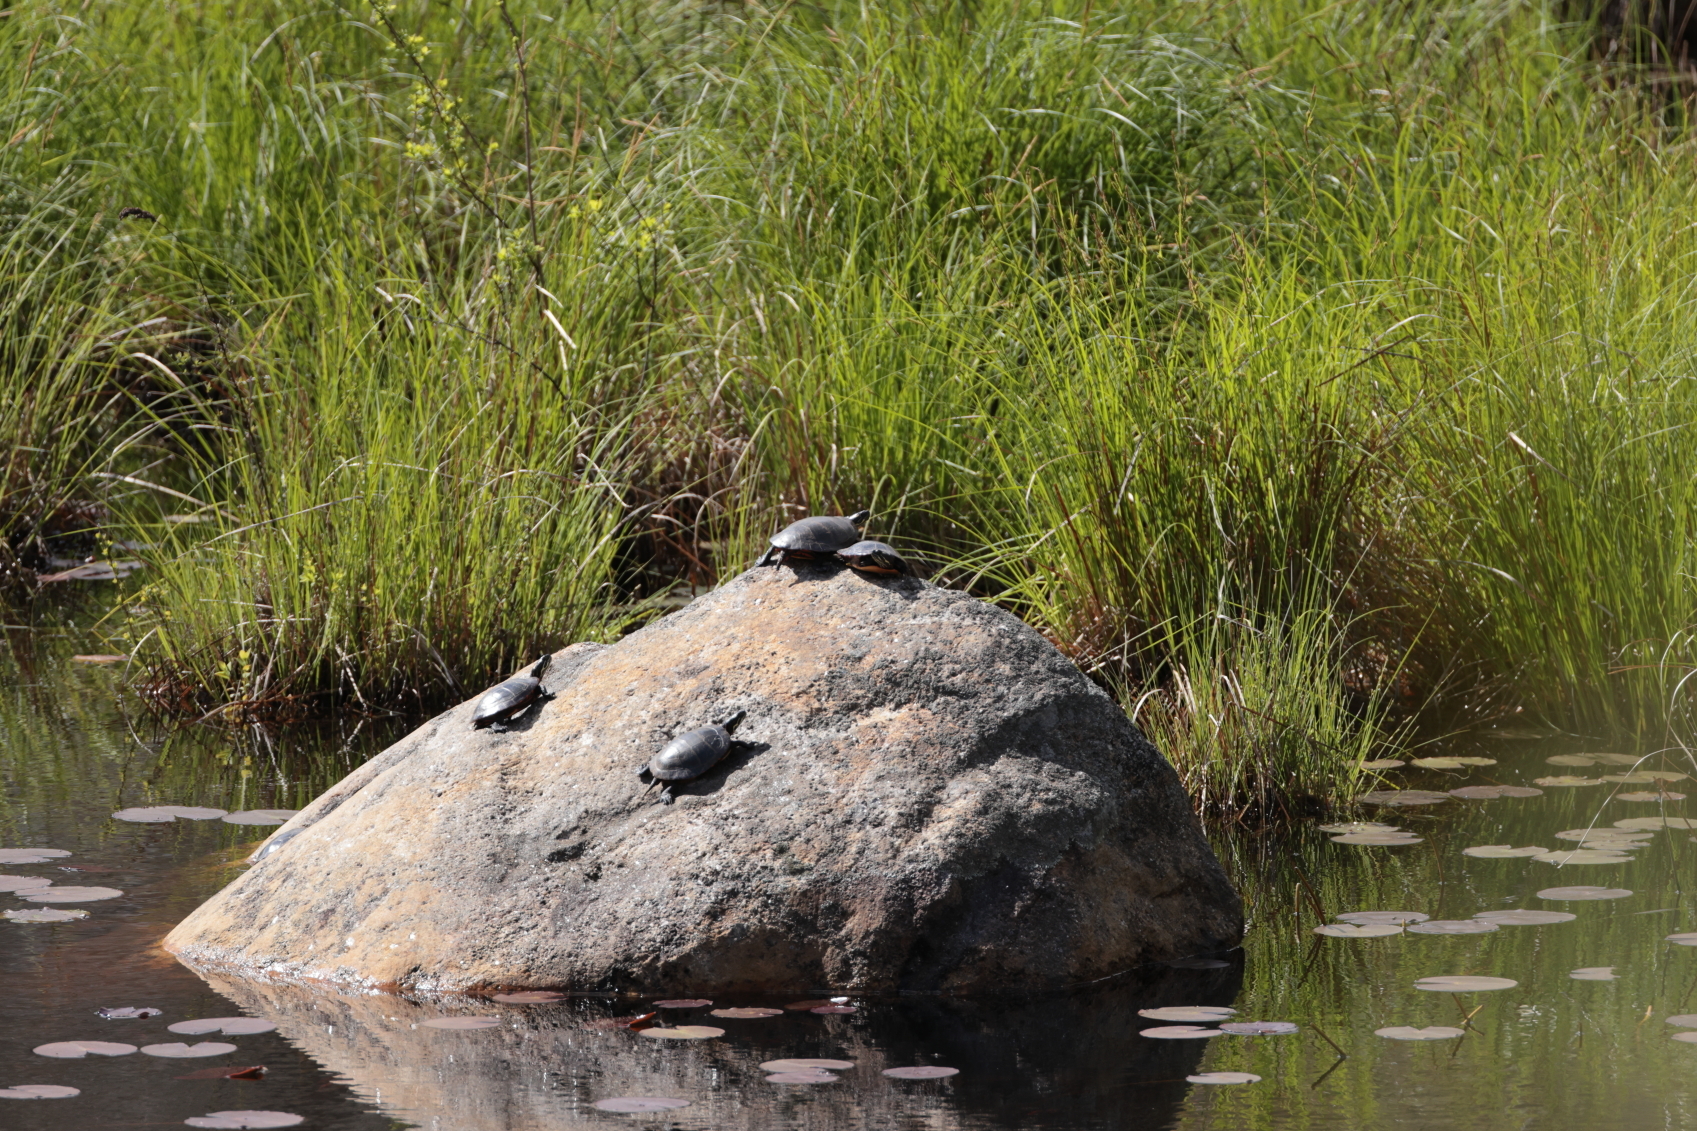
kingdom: Animalia
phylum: Chordata
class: Testudines
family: Emydidae
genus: Chrysemys
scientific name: Chrysemys picta
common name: Painted turtle
